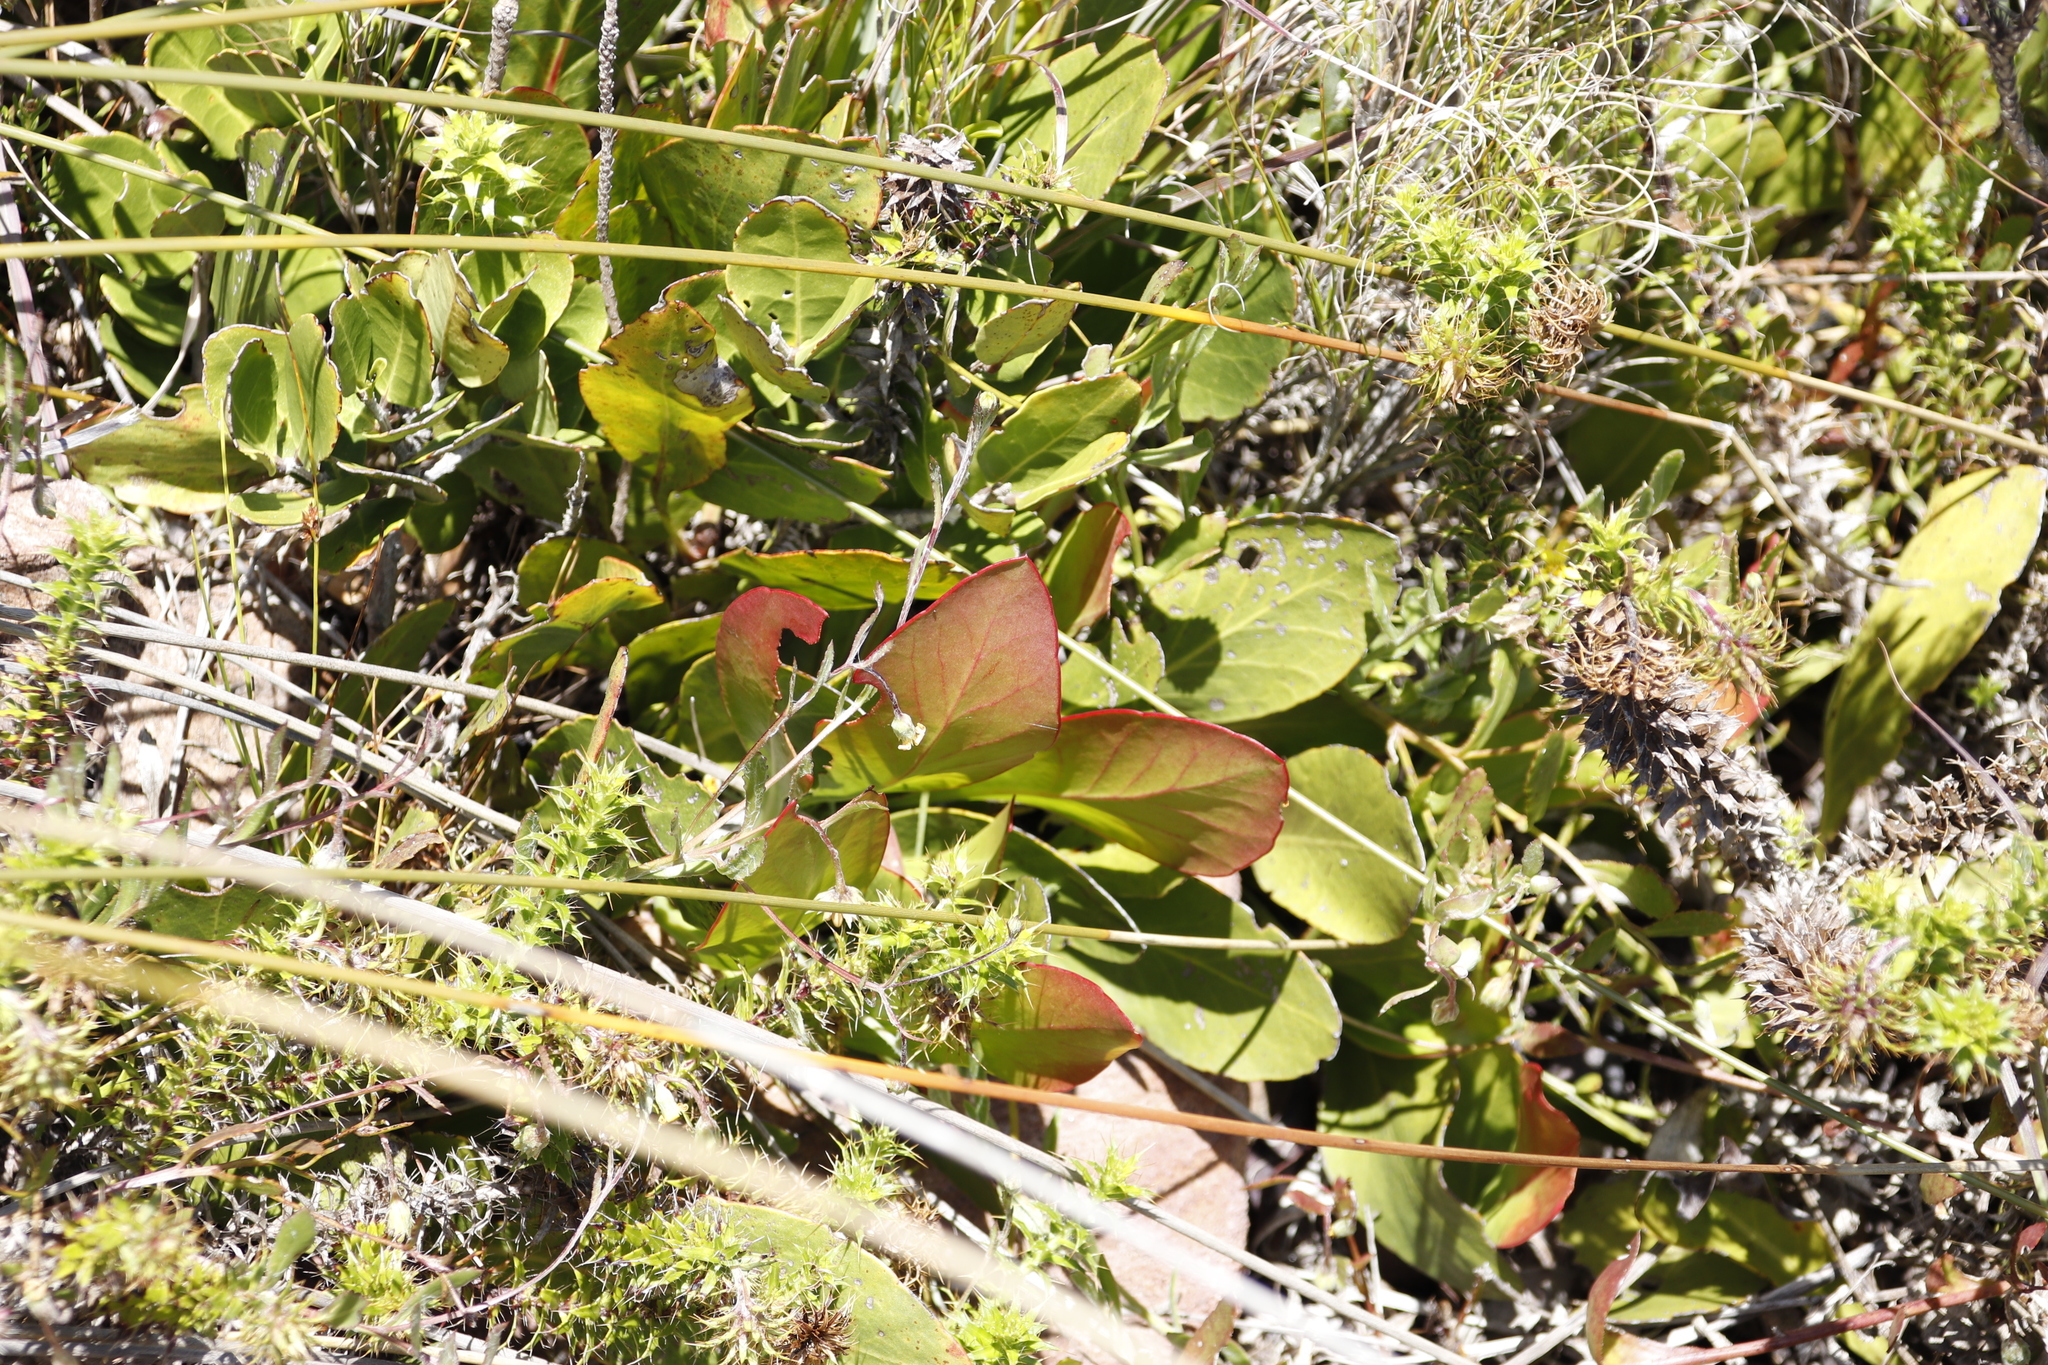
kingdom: Plantae
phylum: Tracheophyta
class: Magnoliopsida
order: Proteales
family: Proteaceae
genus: Protea
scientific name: Protea acaulos
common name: Common ground sugarbush
